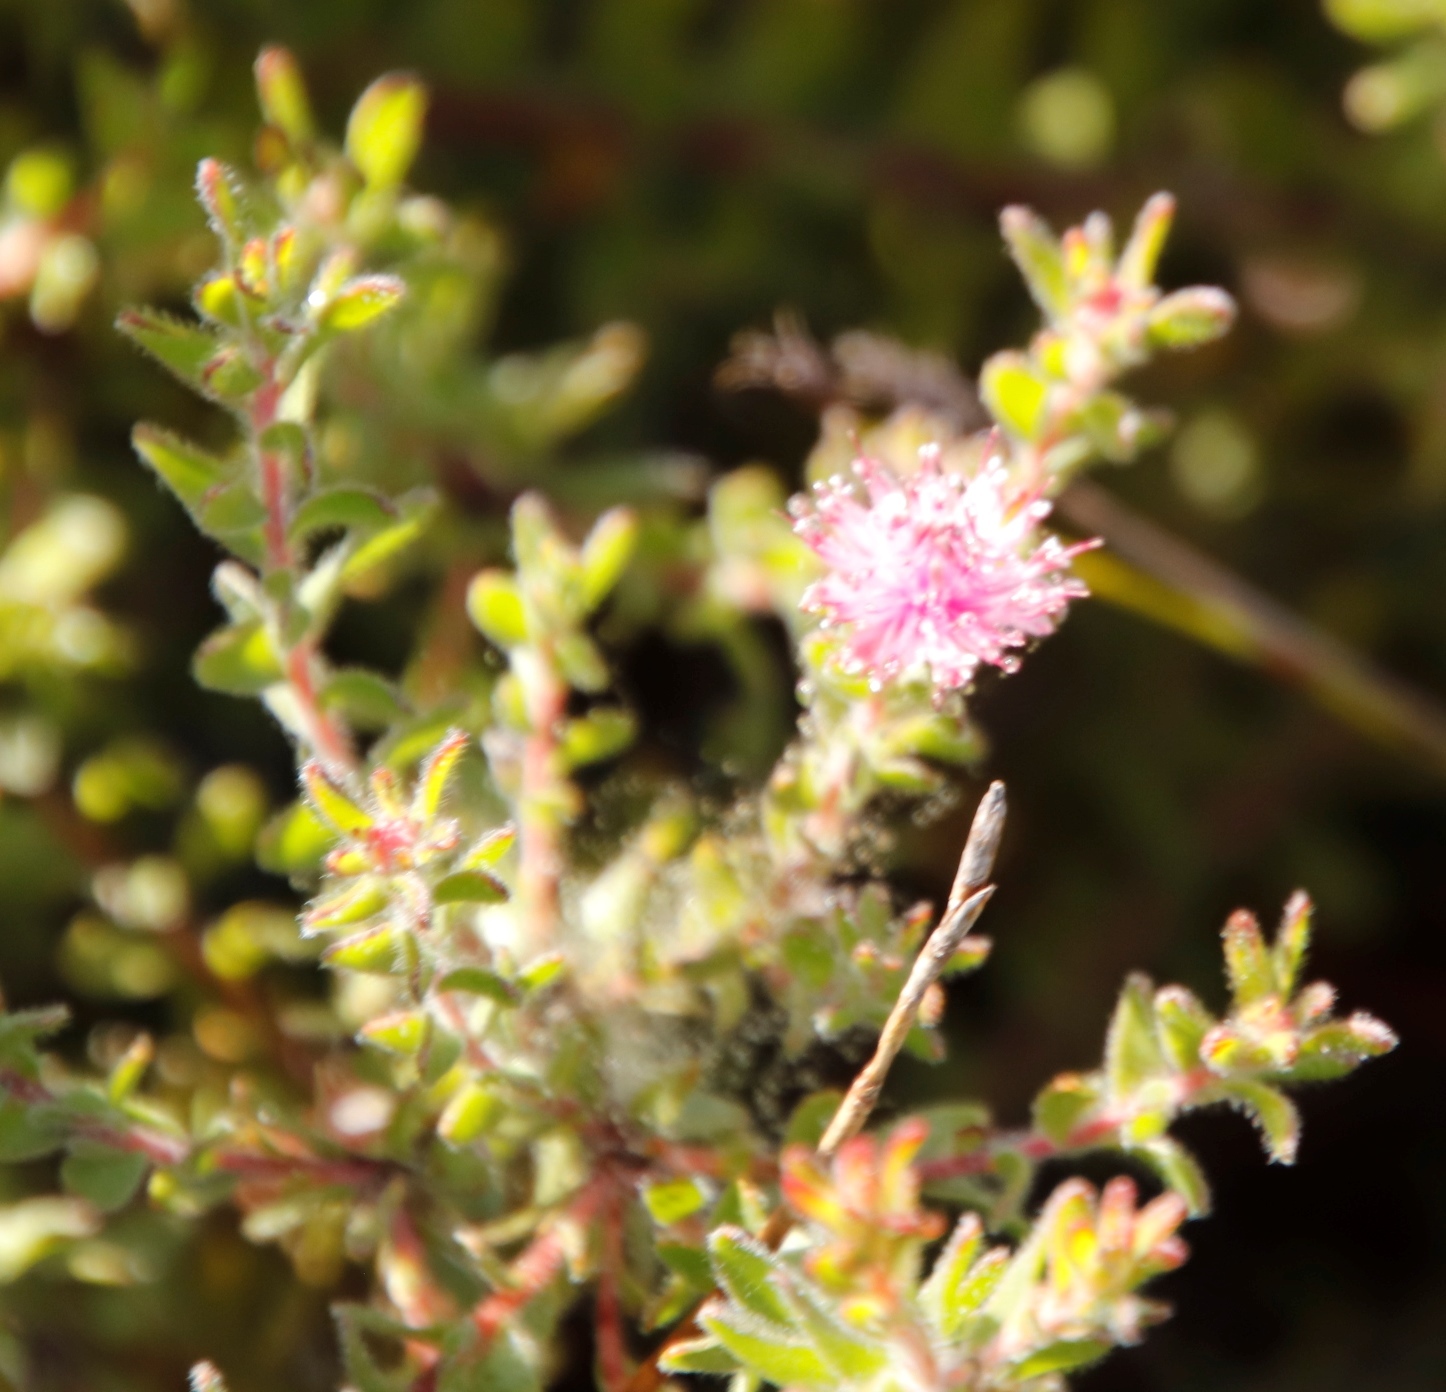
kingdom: Plantae
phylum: Tracheophyta
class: Magnoliopsida
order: Proteales
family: Proteaceae
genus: Diastella
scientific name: Diastella divaricata
